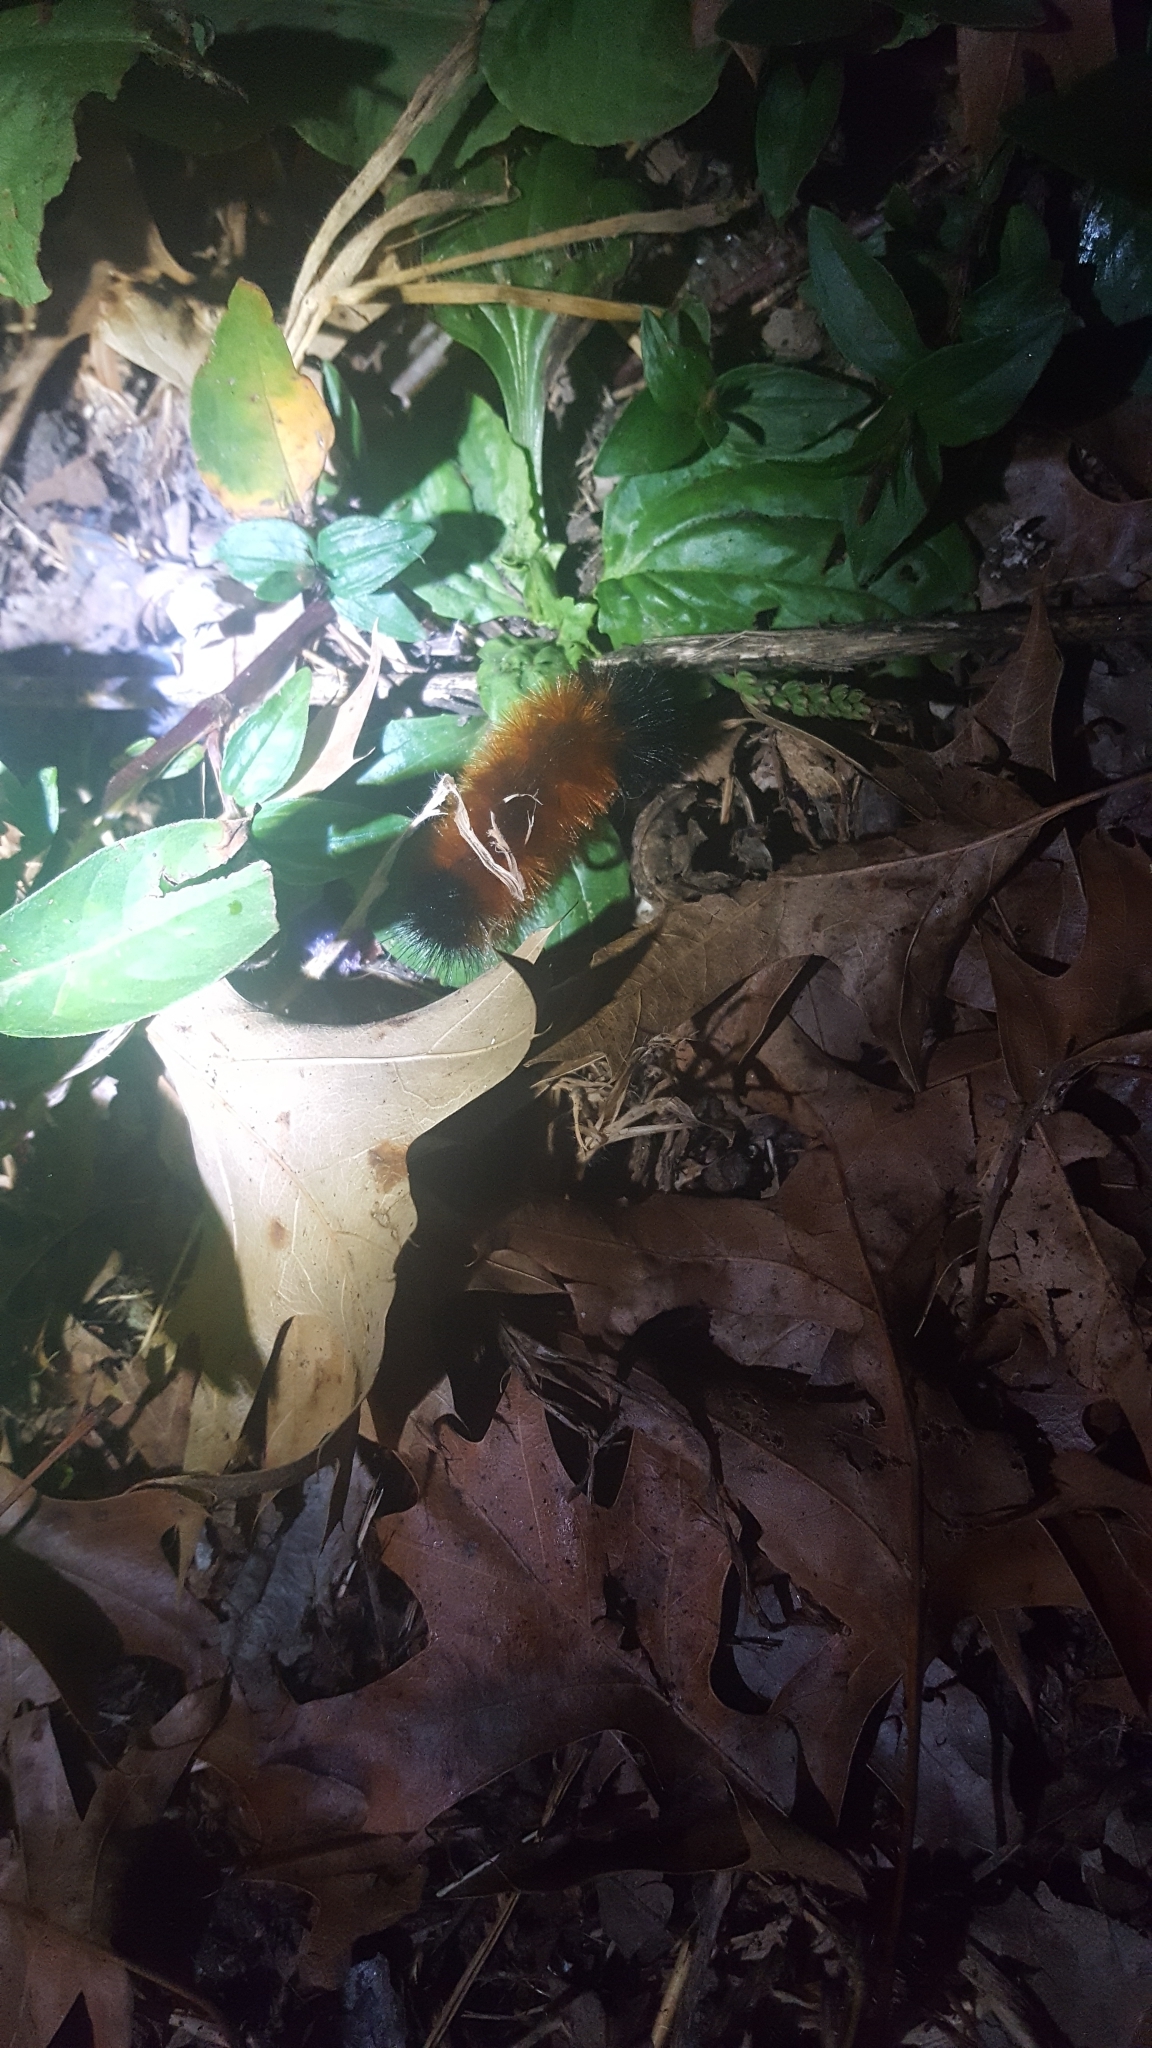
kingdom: Animalia
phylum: Arthropoda
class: Insecta
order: Lepidoptera
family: Erebidae
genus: Pyrrharctia
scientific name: Pyrrharctia isabella
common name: Isabella tiger moth
